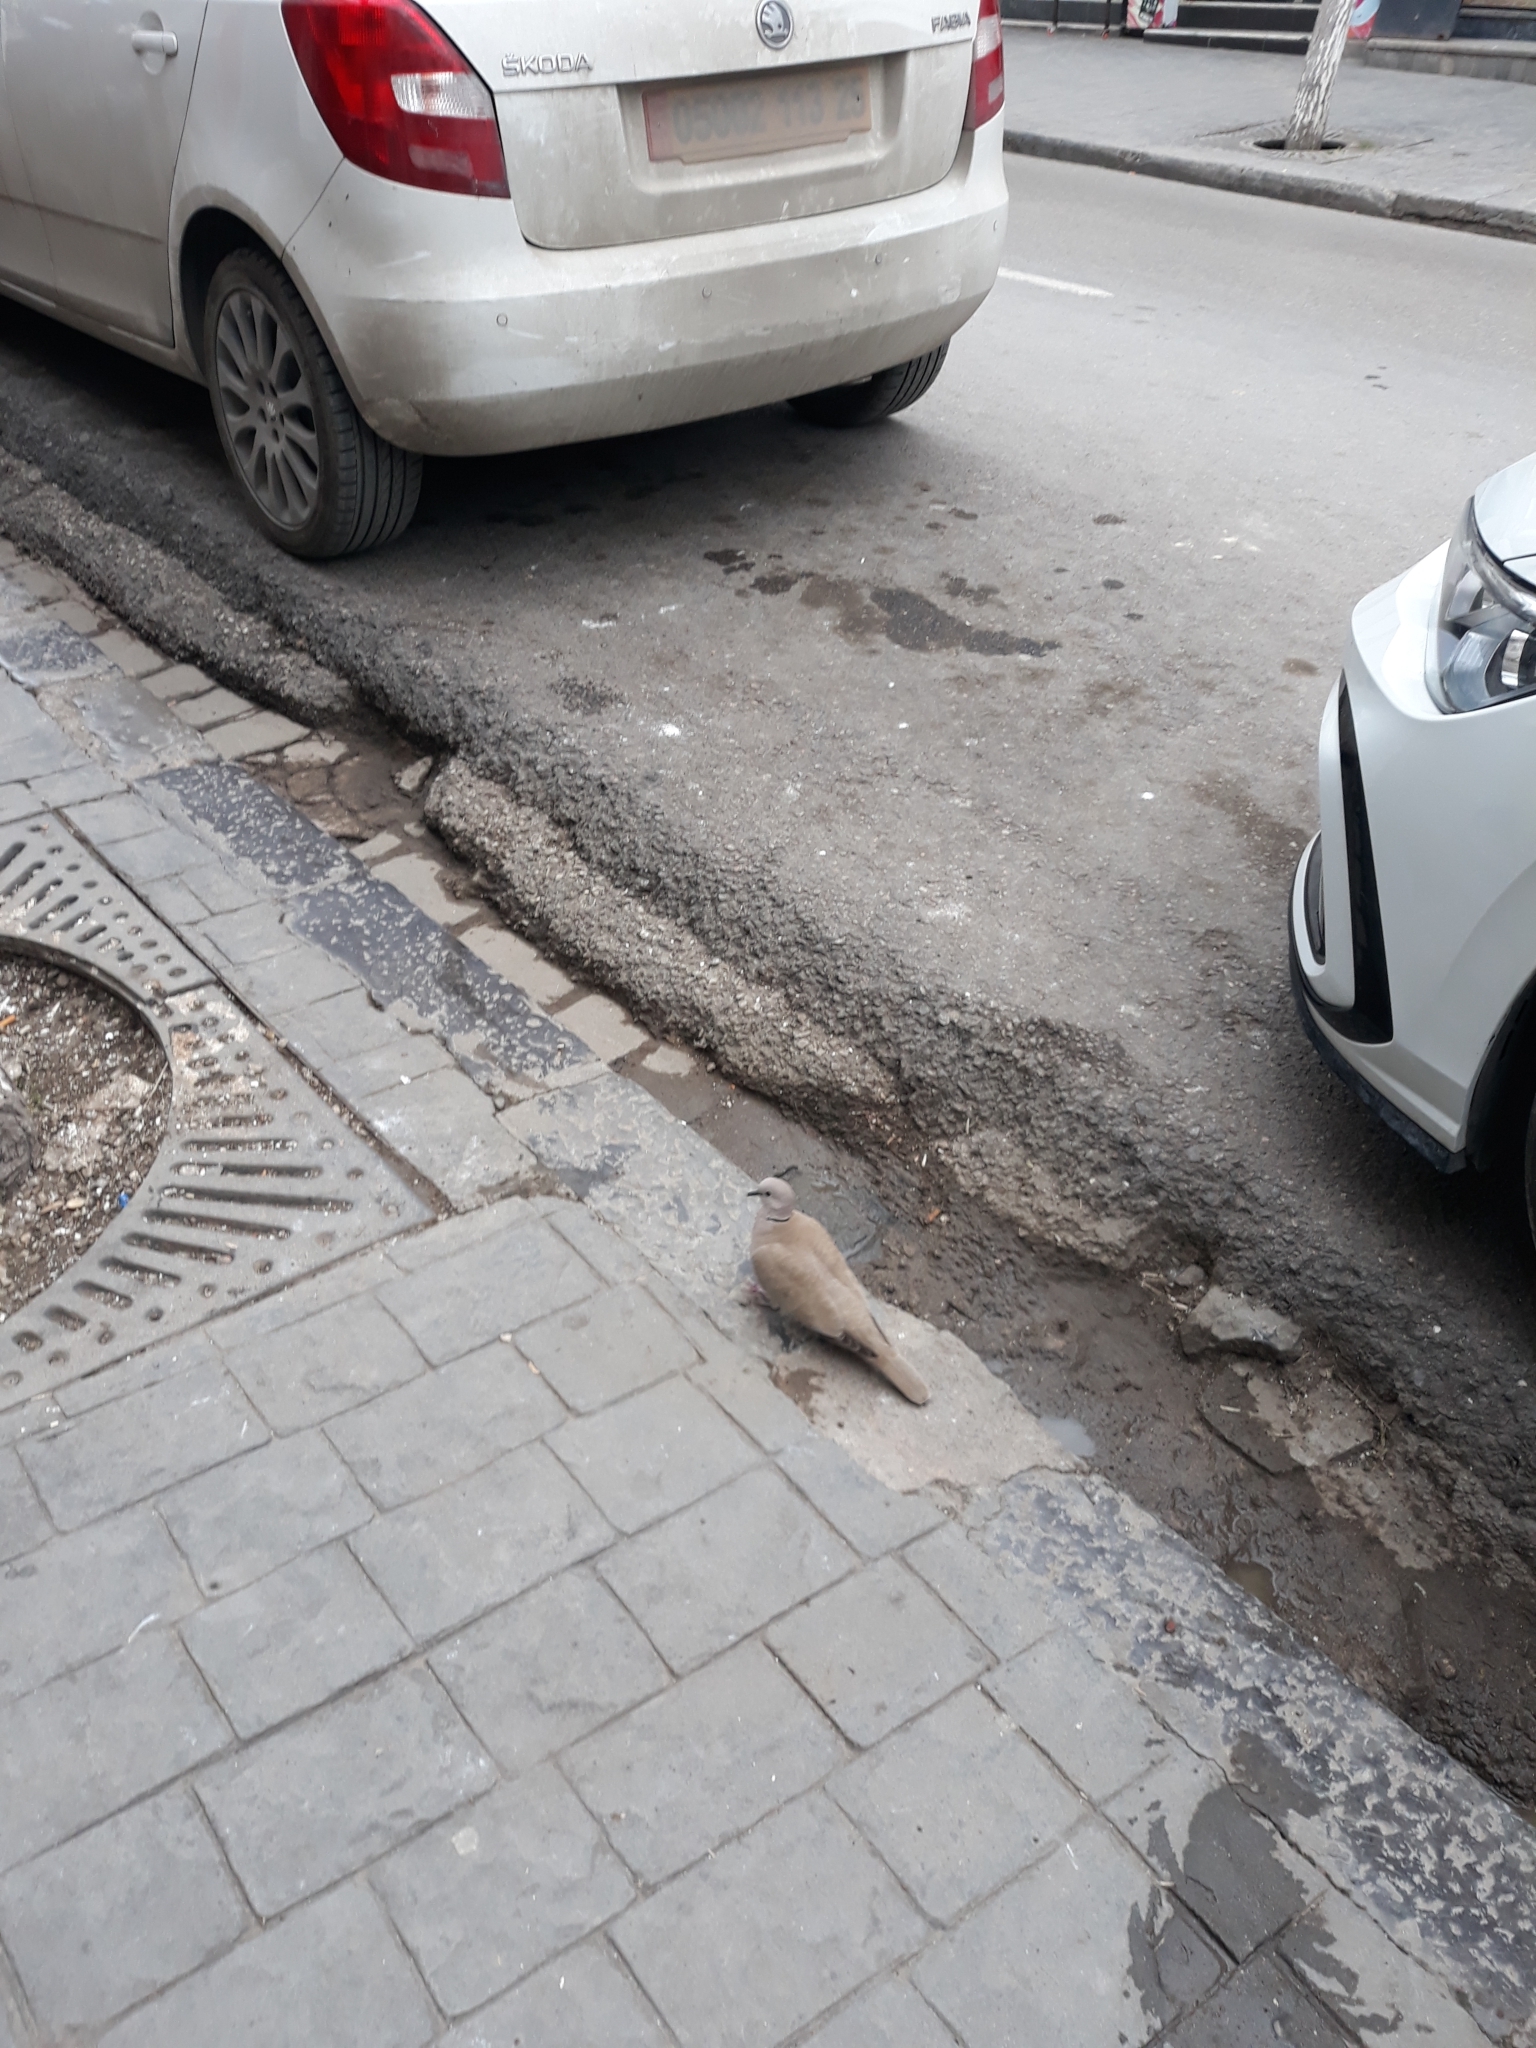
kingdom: Animalia
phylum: Chordata
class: Aves
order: Columbiformes
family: Columbidae
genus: Streptopelia
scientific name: Streptopelia decaocto
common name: Eurasian collared dove
